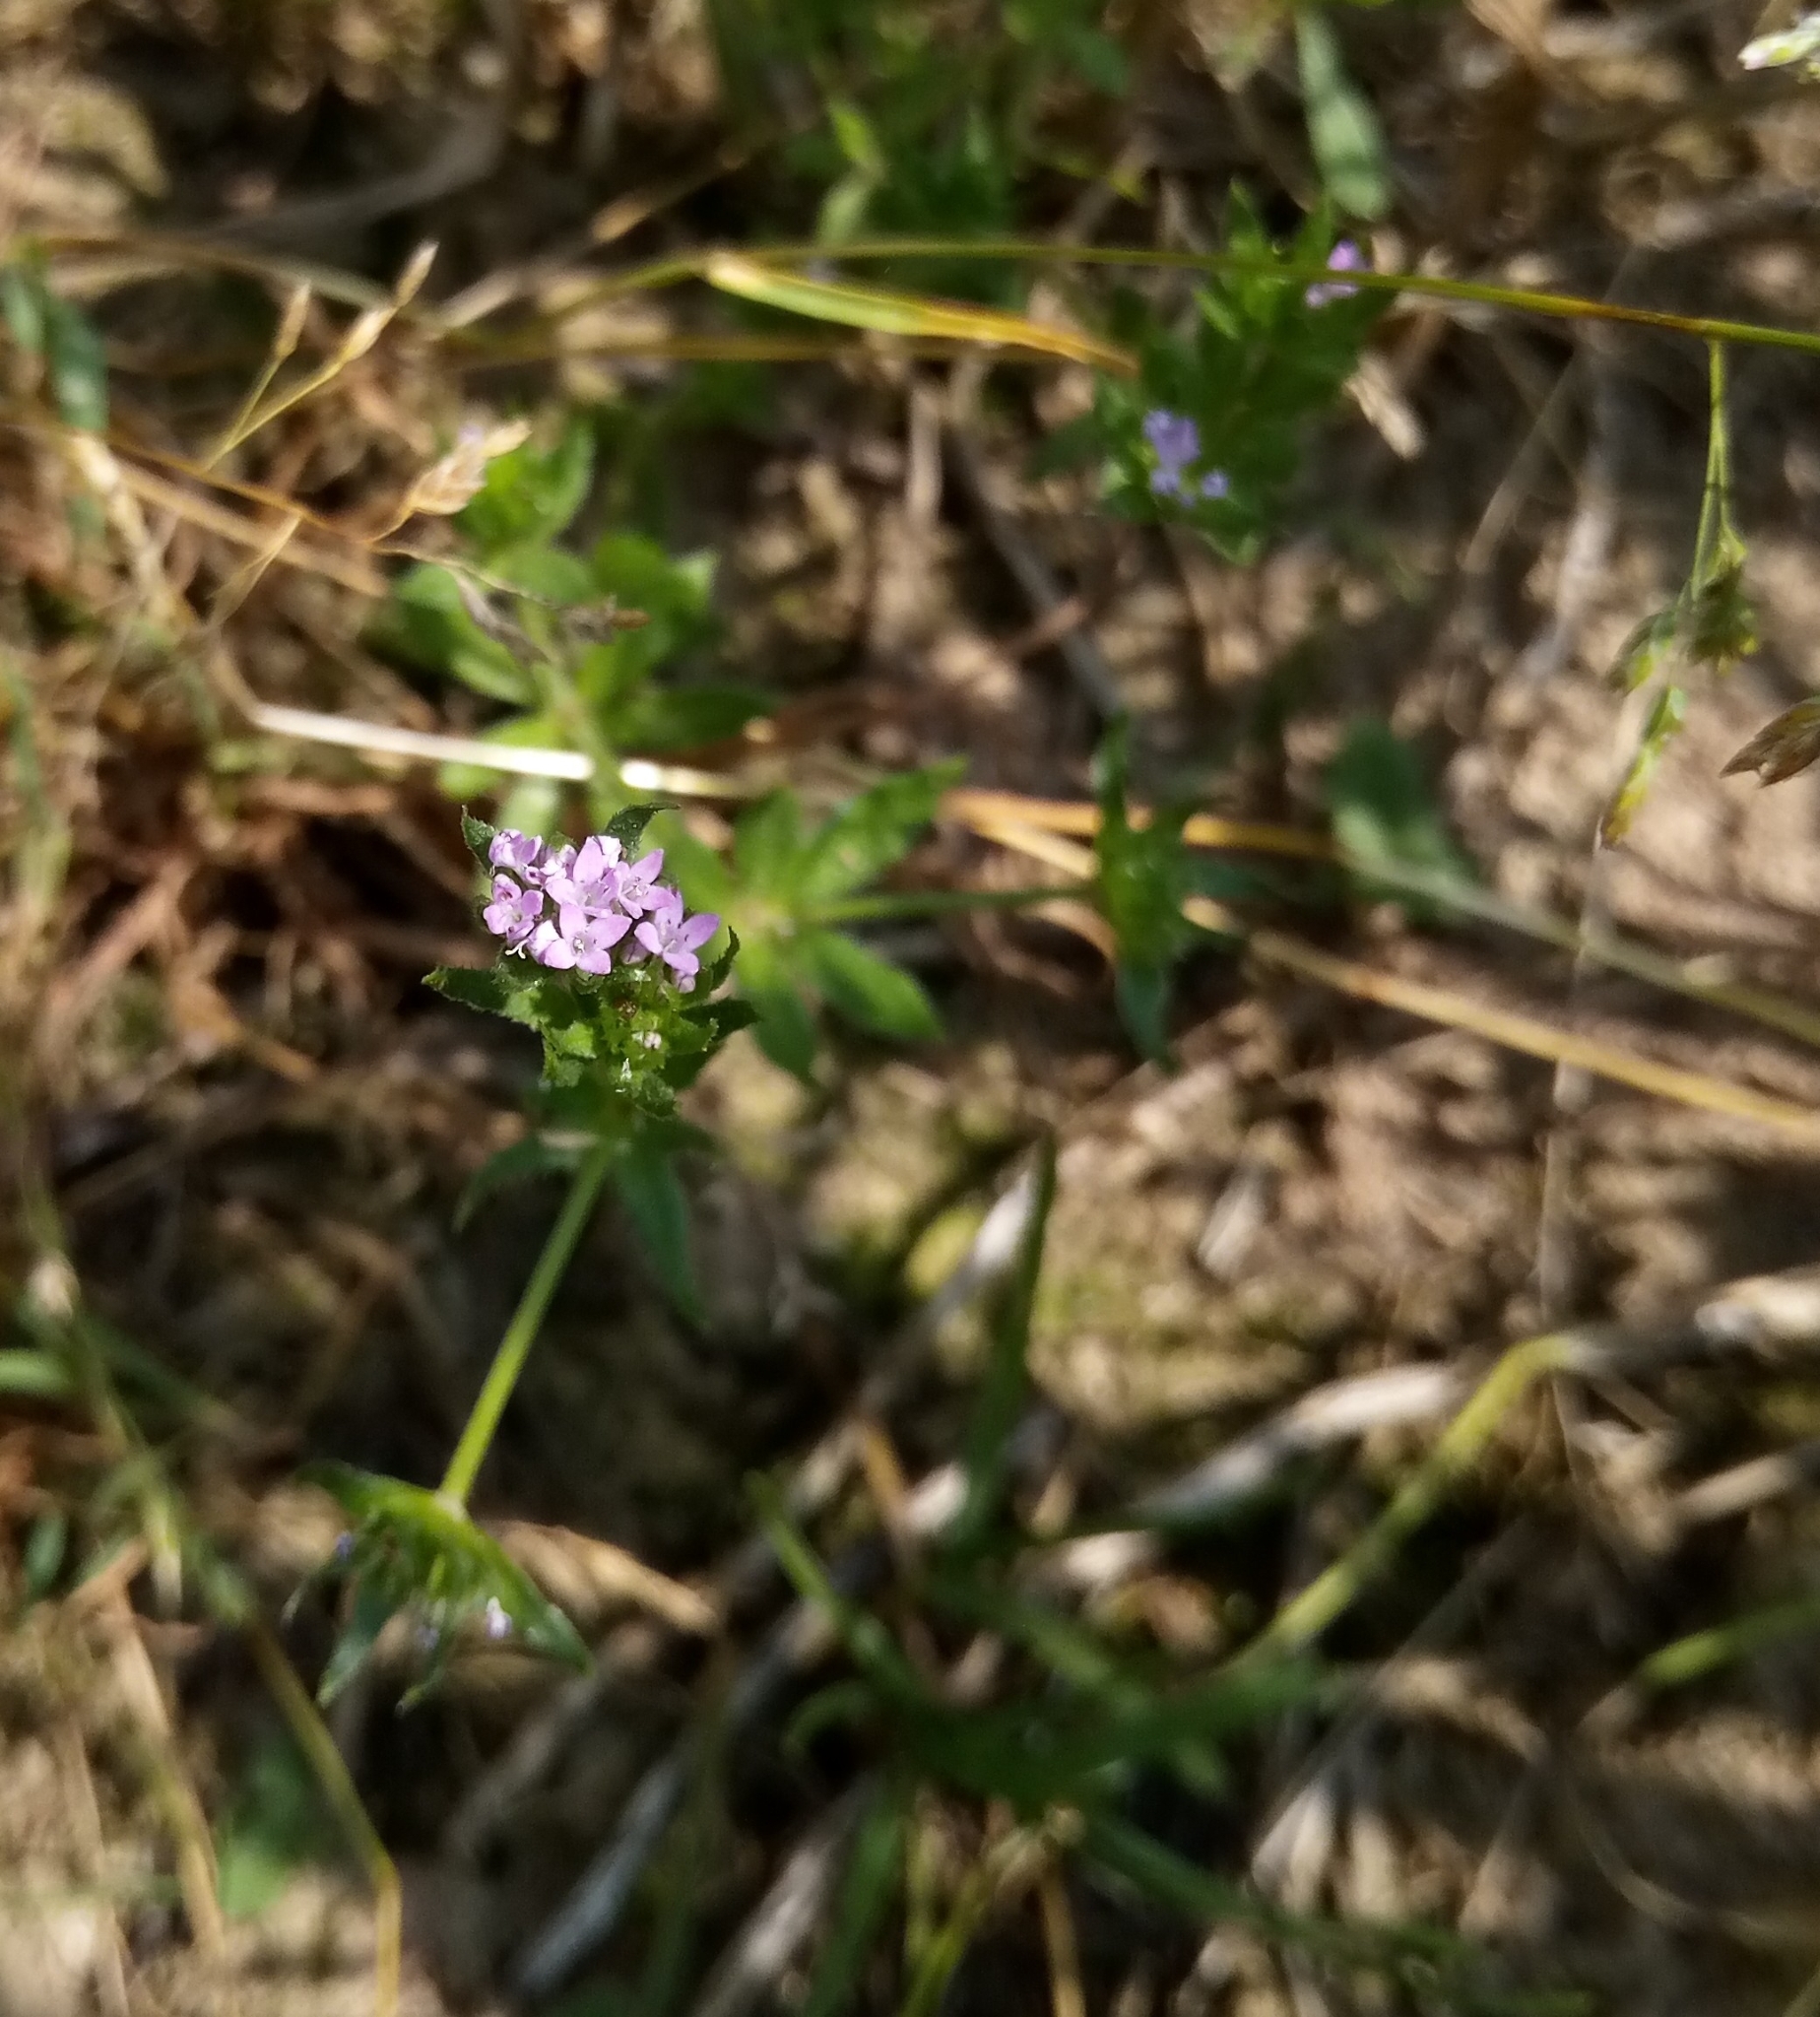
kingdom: Plantae
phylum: Tracheophyta
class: Magnoliopsida
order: Gentianales
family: Rubiaceae
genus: Sherardia
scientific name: Sherardia arvensis
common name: Field madder
